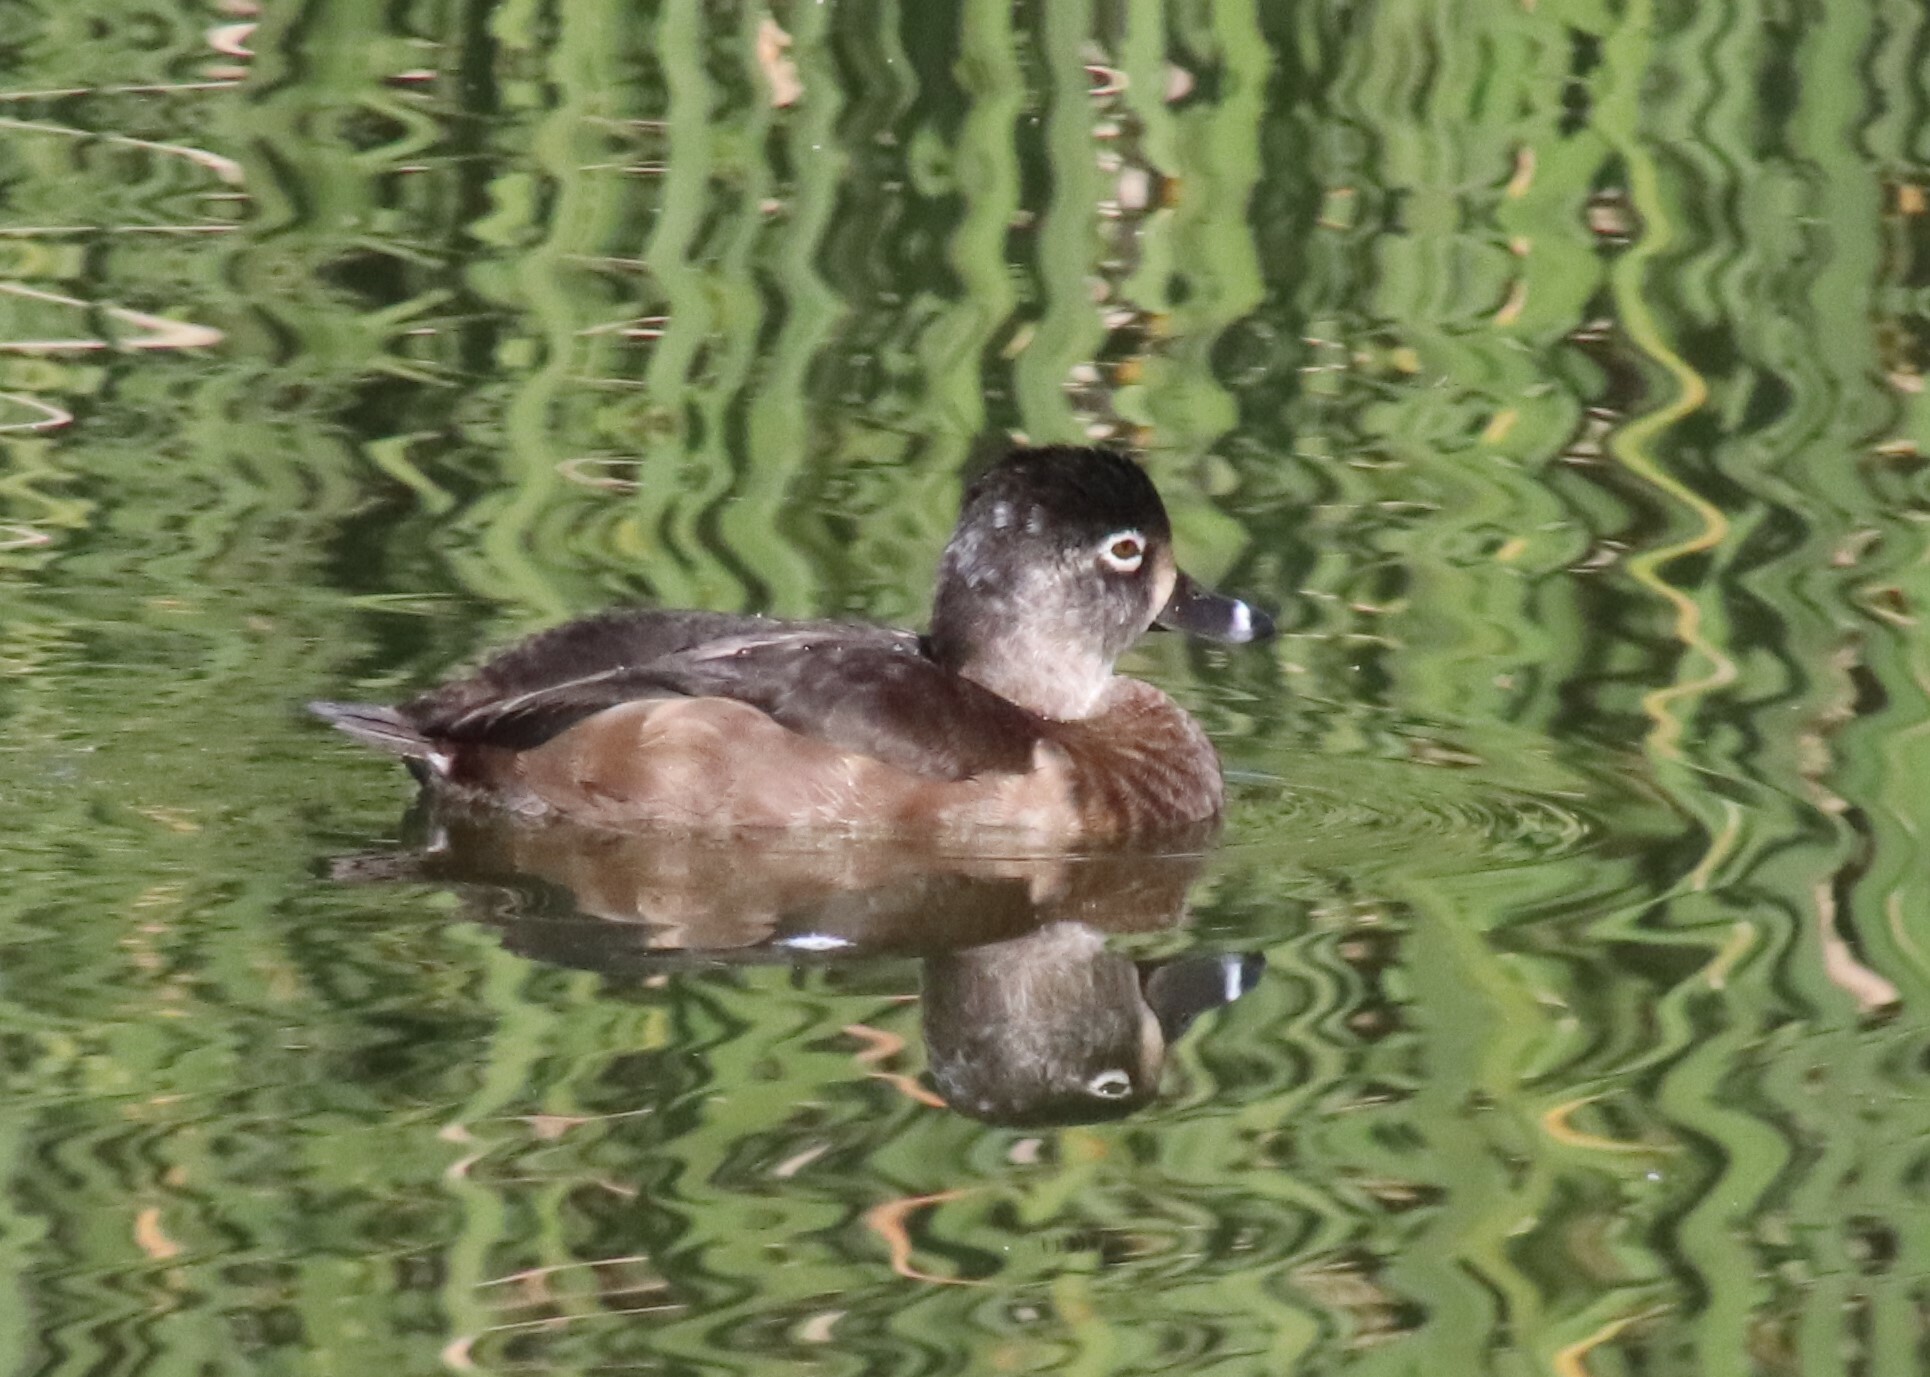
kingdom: Animalia
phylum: Chordata
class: Aves
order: Anseriformes
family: Anatidae
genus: Aythya
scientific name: Aythya collaris
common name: Ring-necked duck
